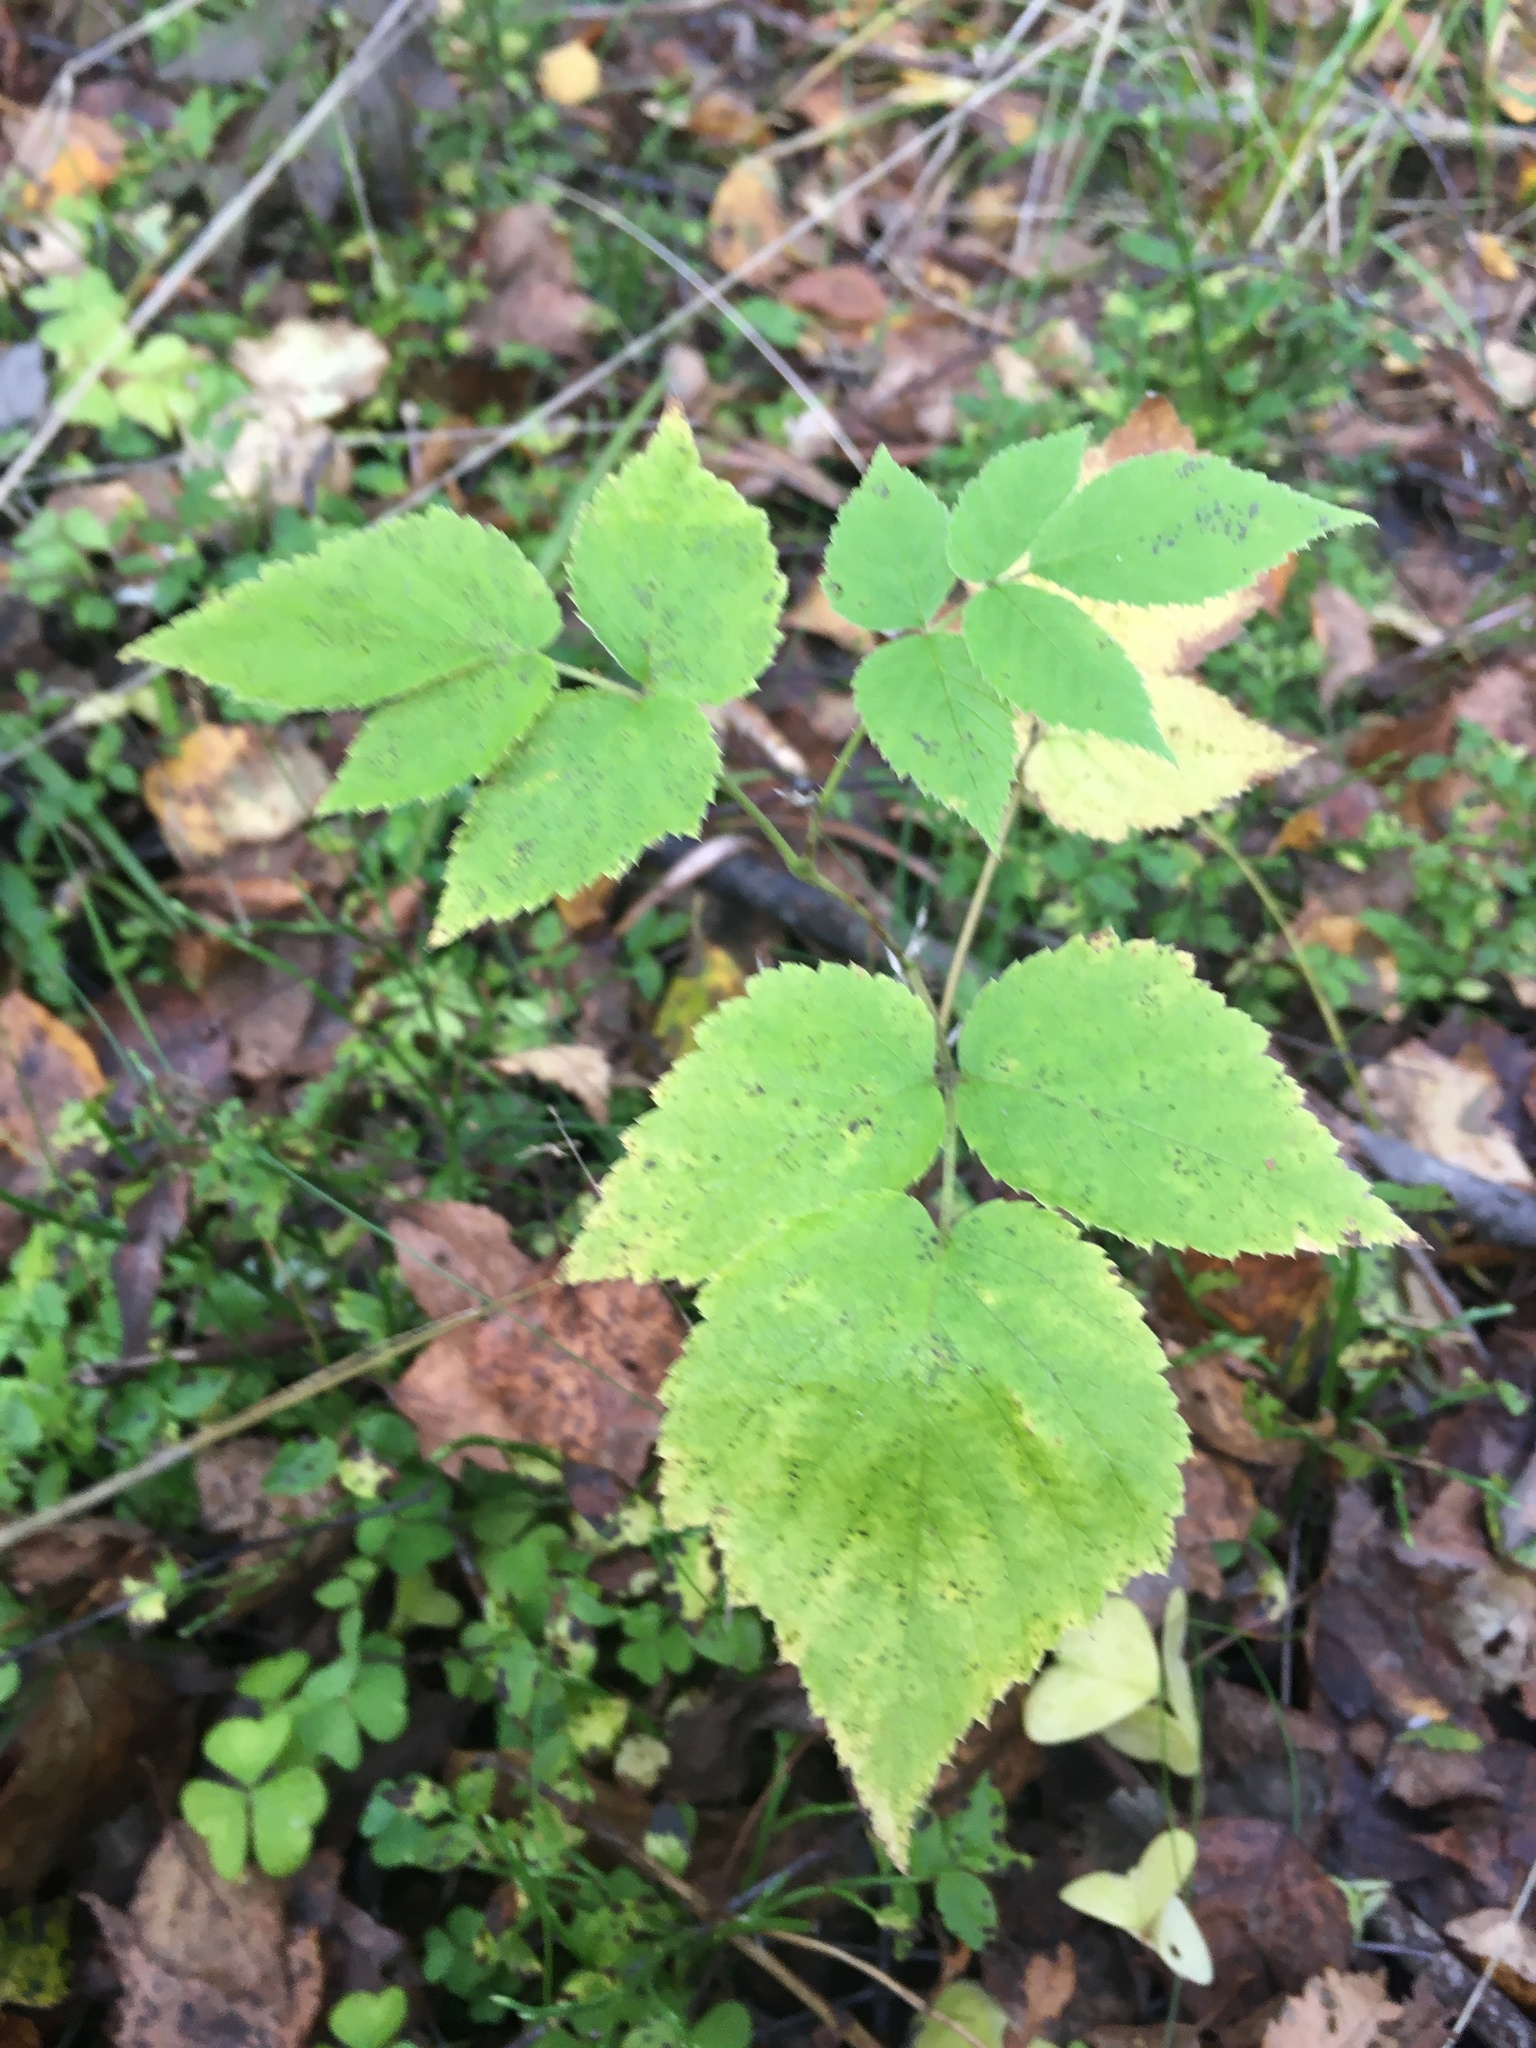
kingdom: Plantae
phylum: Tracheophyta
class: Magnoliopsida
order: Rosales
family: Rosaceae
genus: Rubus
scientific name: Rubus idaeus
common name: Raspberry
